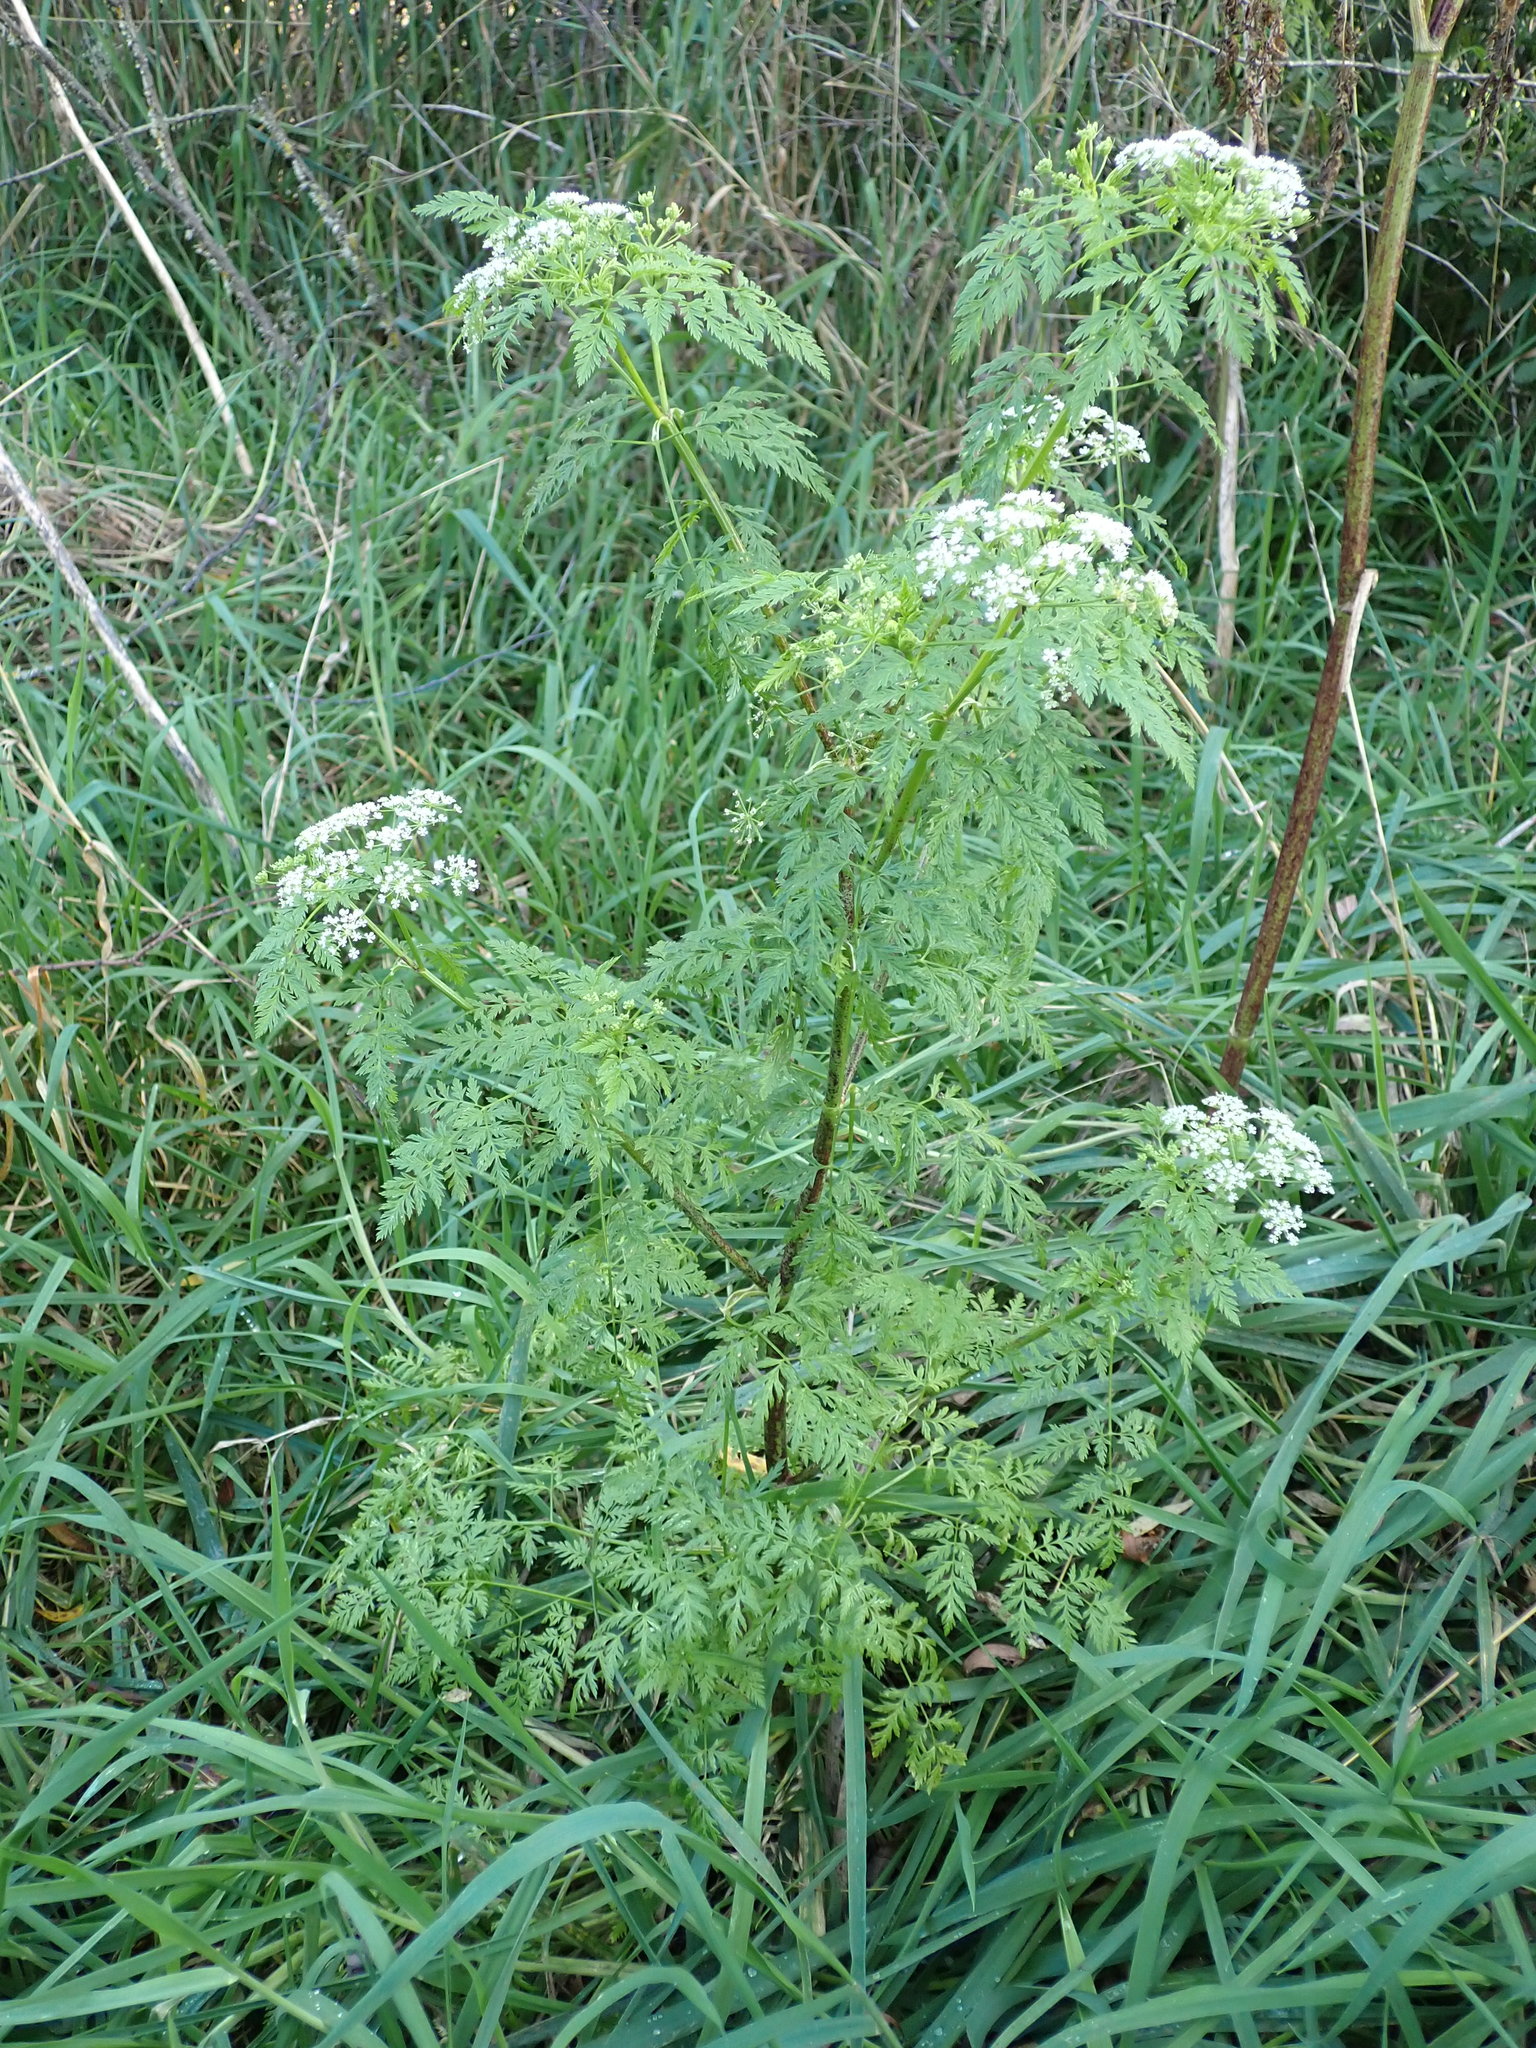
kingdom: Plantae
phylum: Tracheophyta
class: Magnoliopsida
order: Apiales
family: Apiaceae
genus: Conium
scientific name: Conium maculatum
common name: Hemlock
